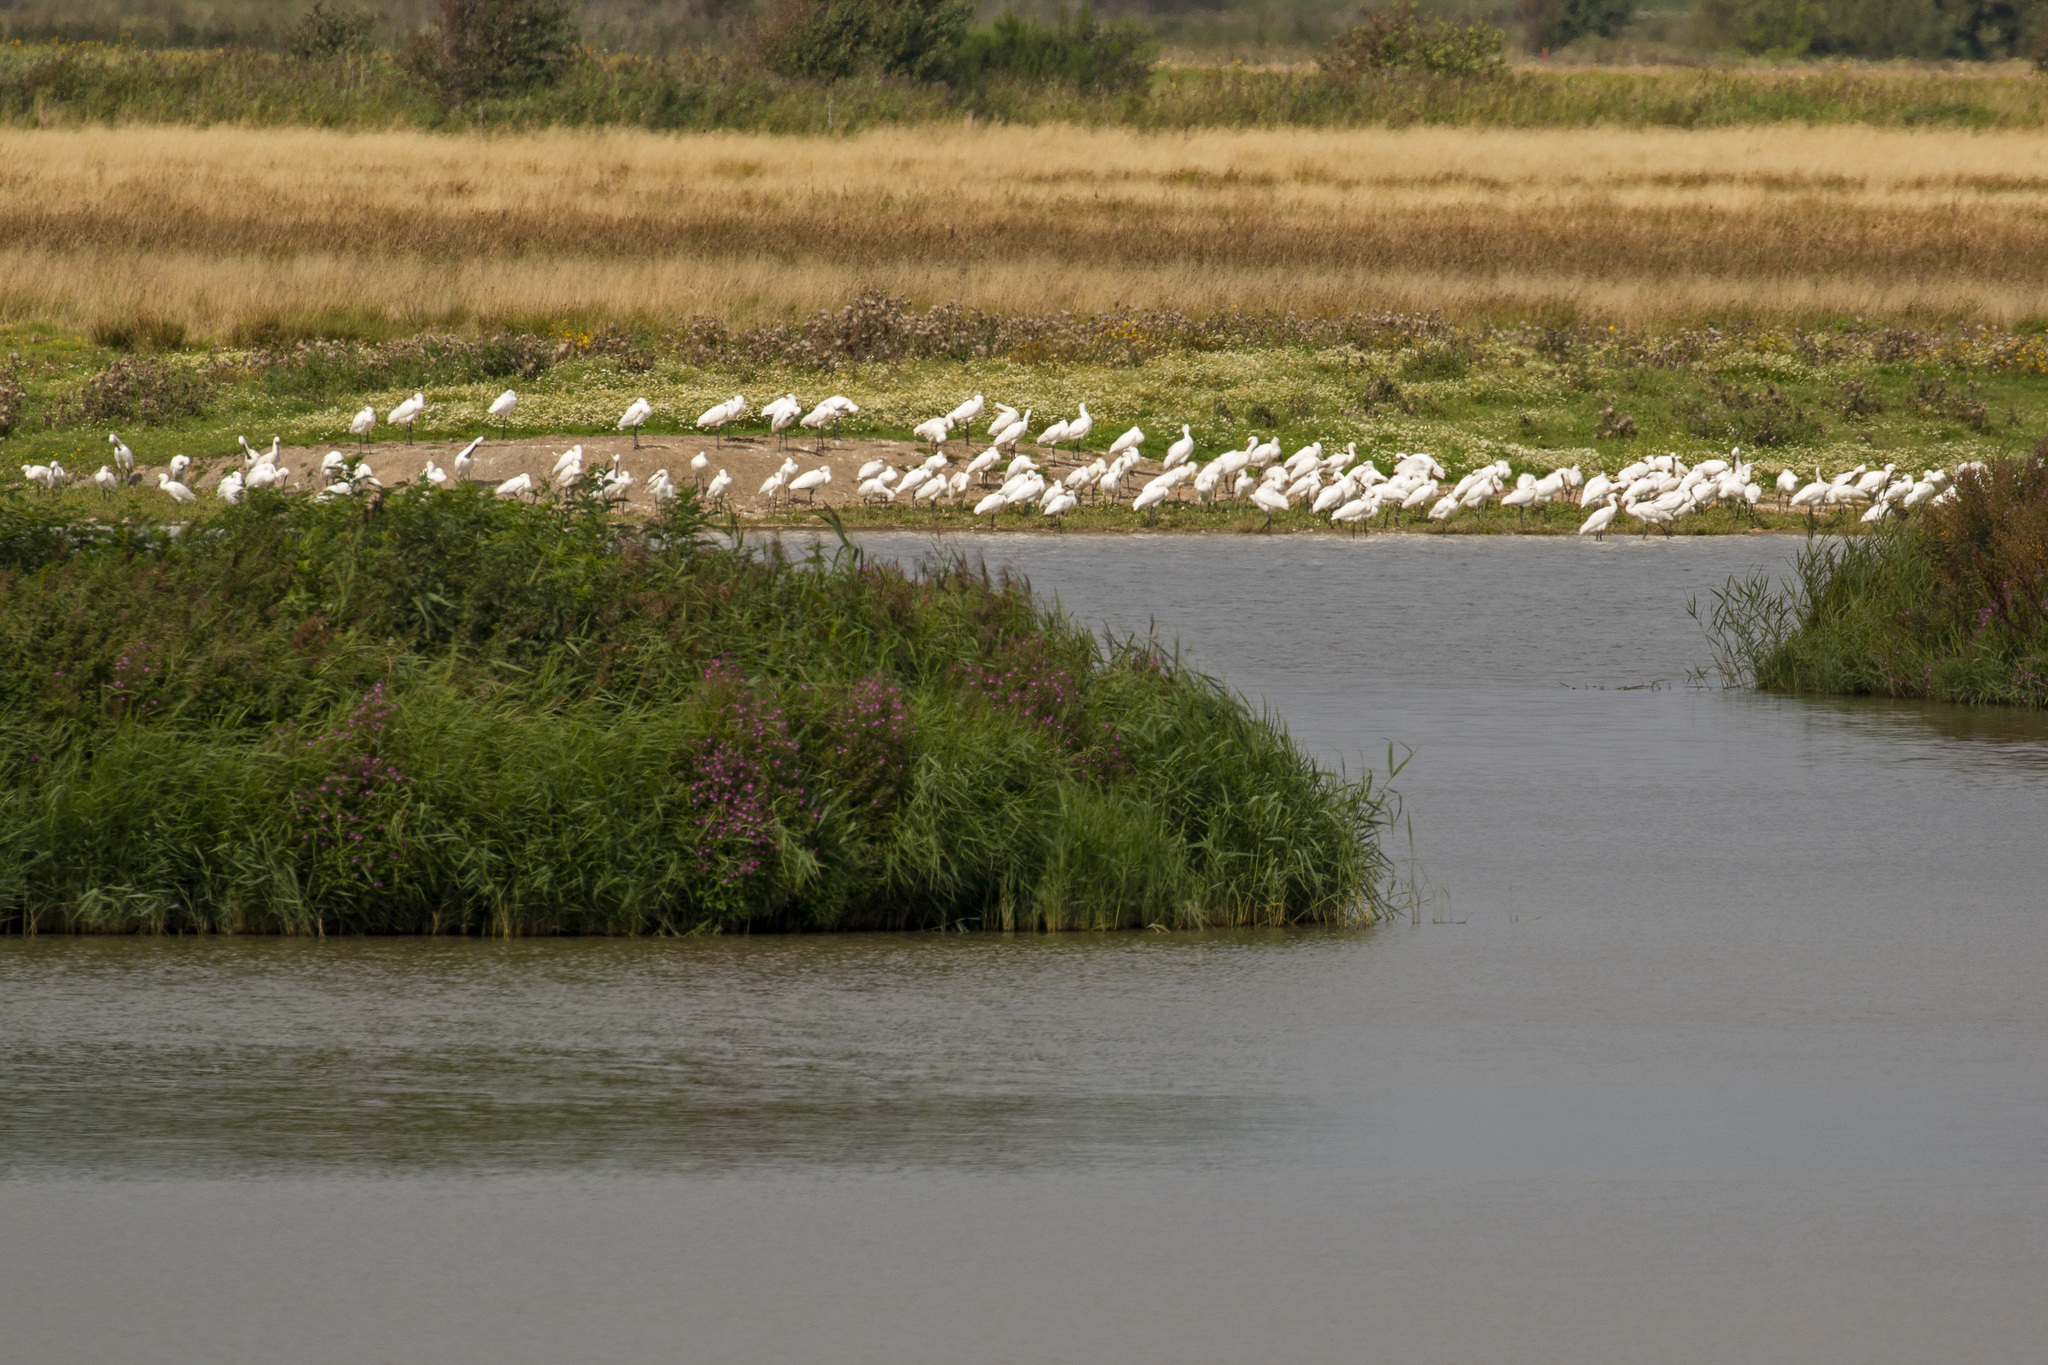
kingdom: Animalia
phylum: Chordata
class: Aves
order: Pelecaniformes
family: Threskiornithidae
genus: Platalea
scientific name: Platalea leucorodia
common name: Eurasian spoonbill
